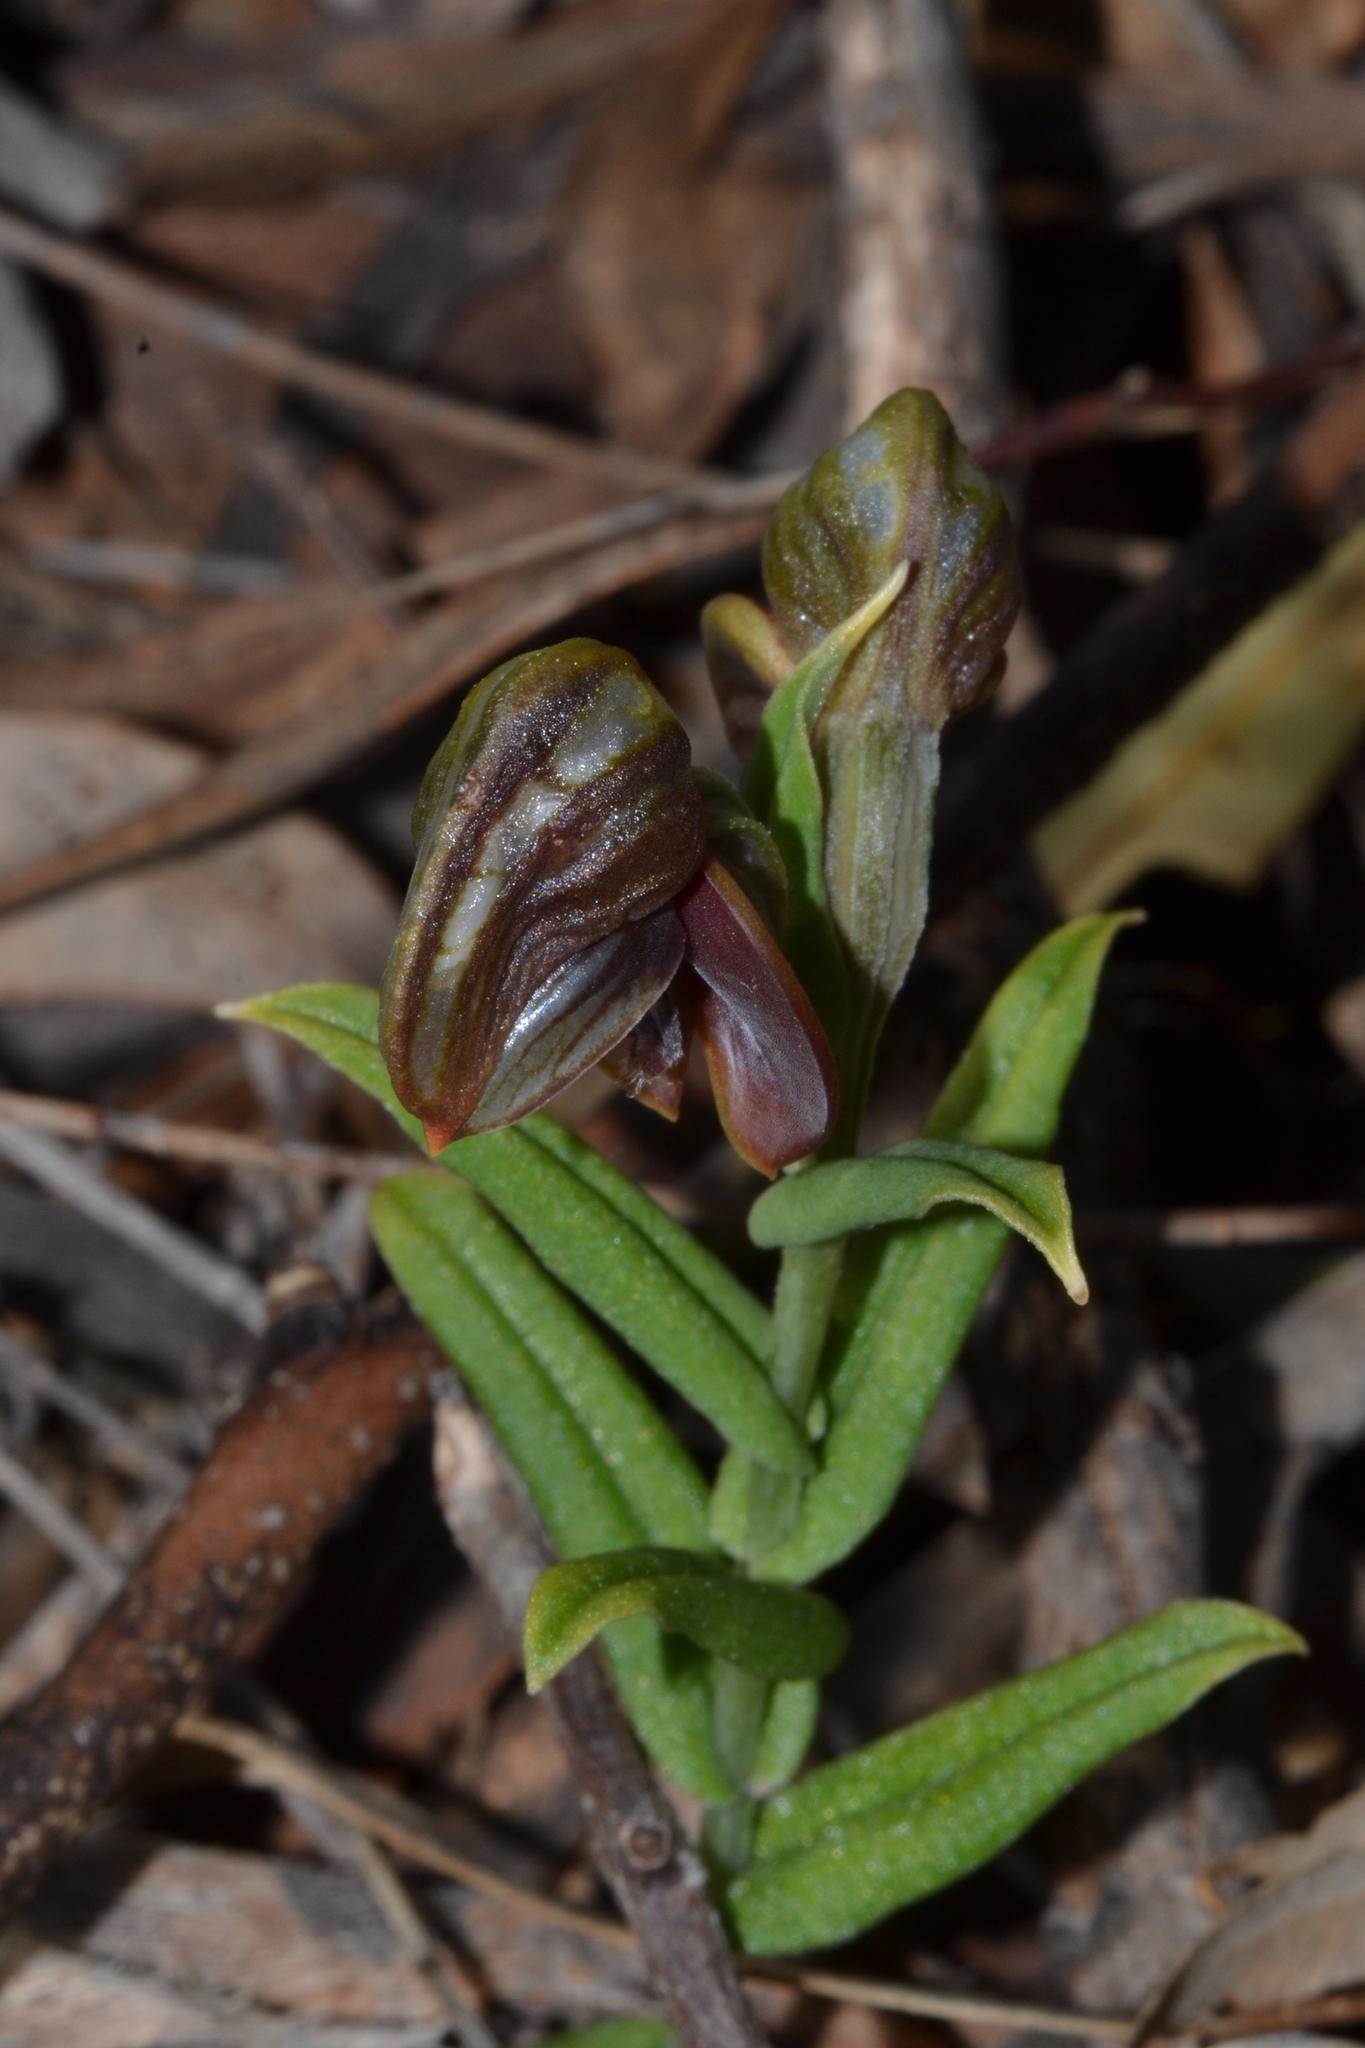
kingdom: Plantae
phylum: Tracheophyta
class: Liliopsida
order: Asparagales
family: Orchidaceae
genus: Pterostylis
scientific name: Pterostylis sanguinea
